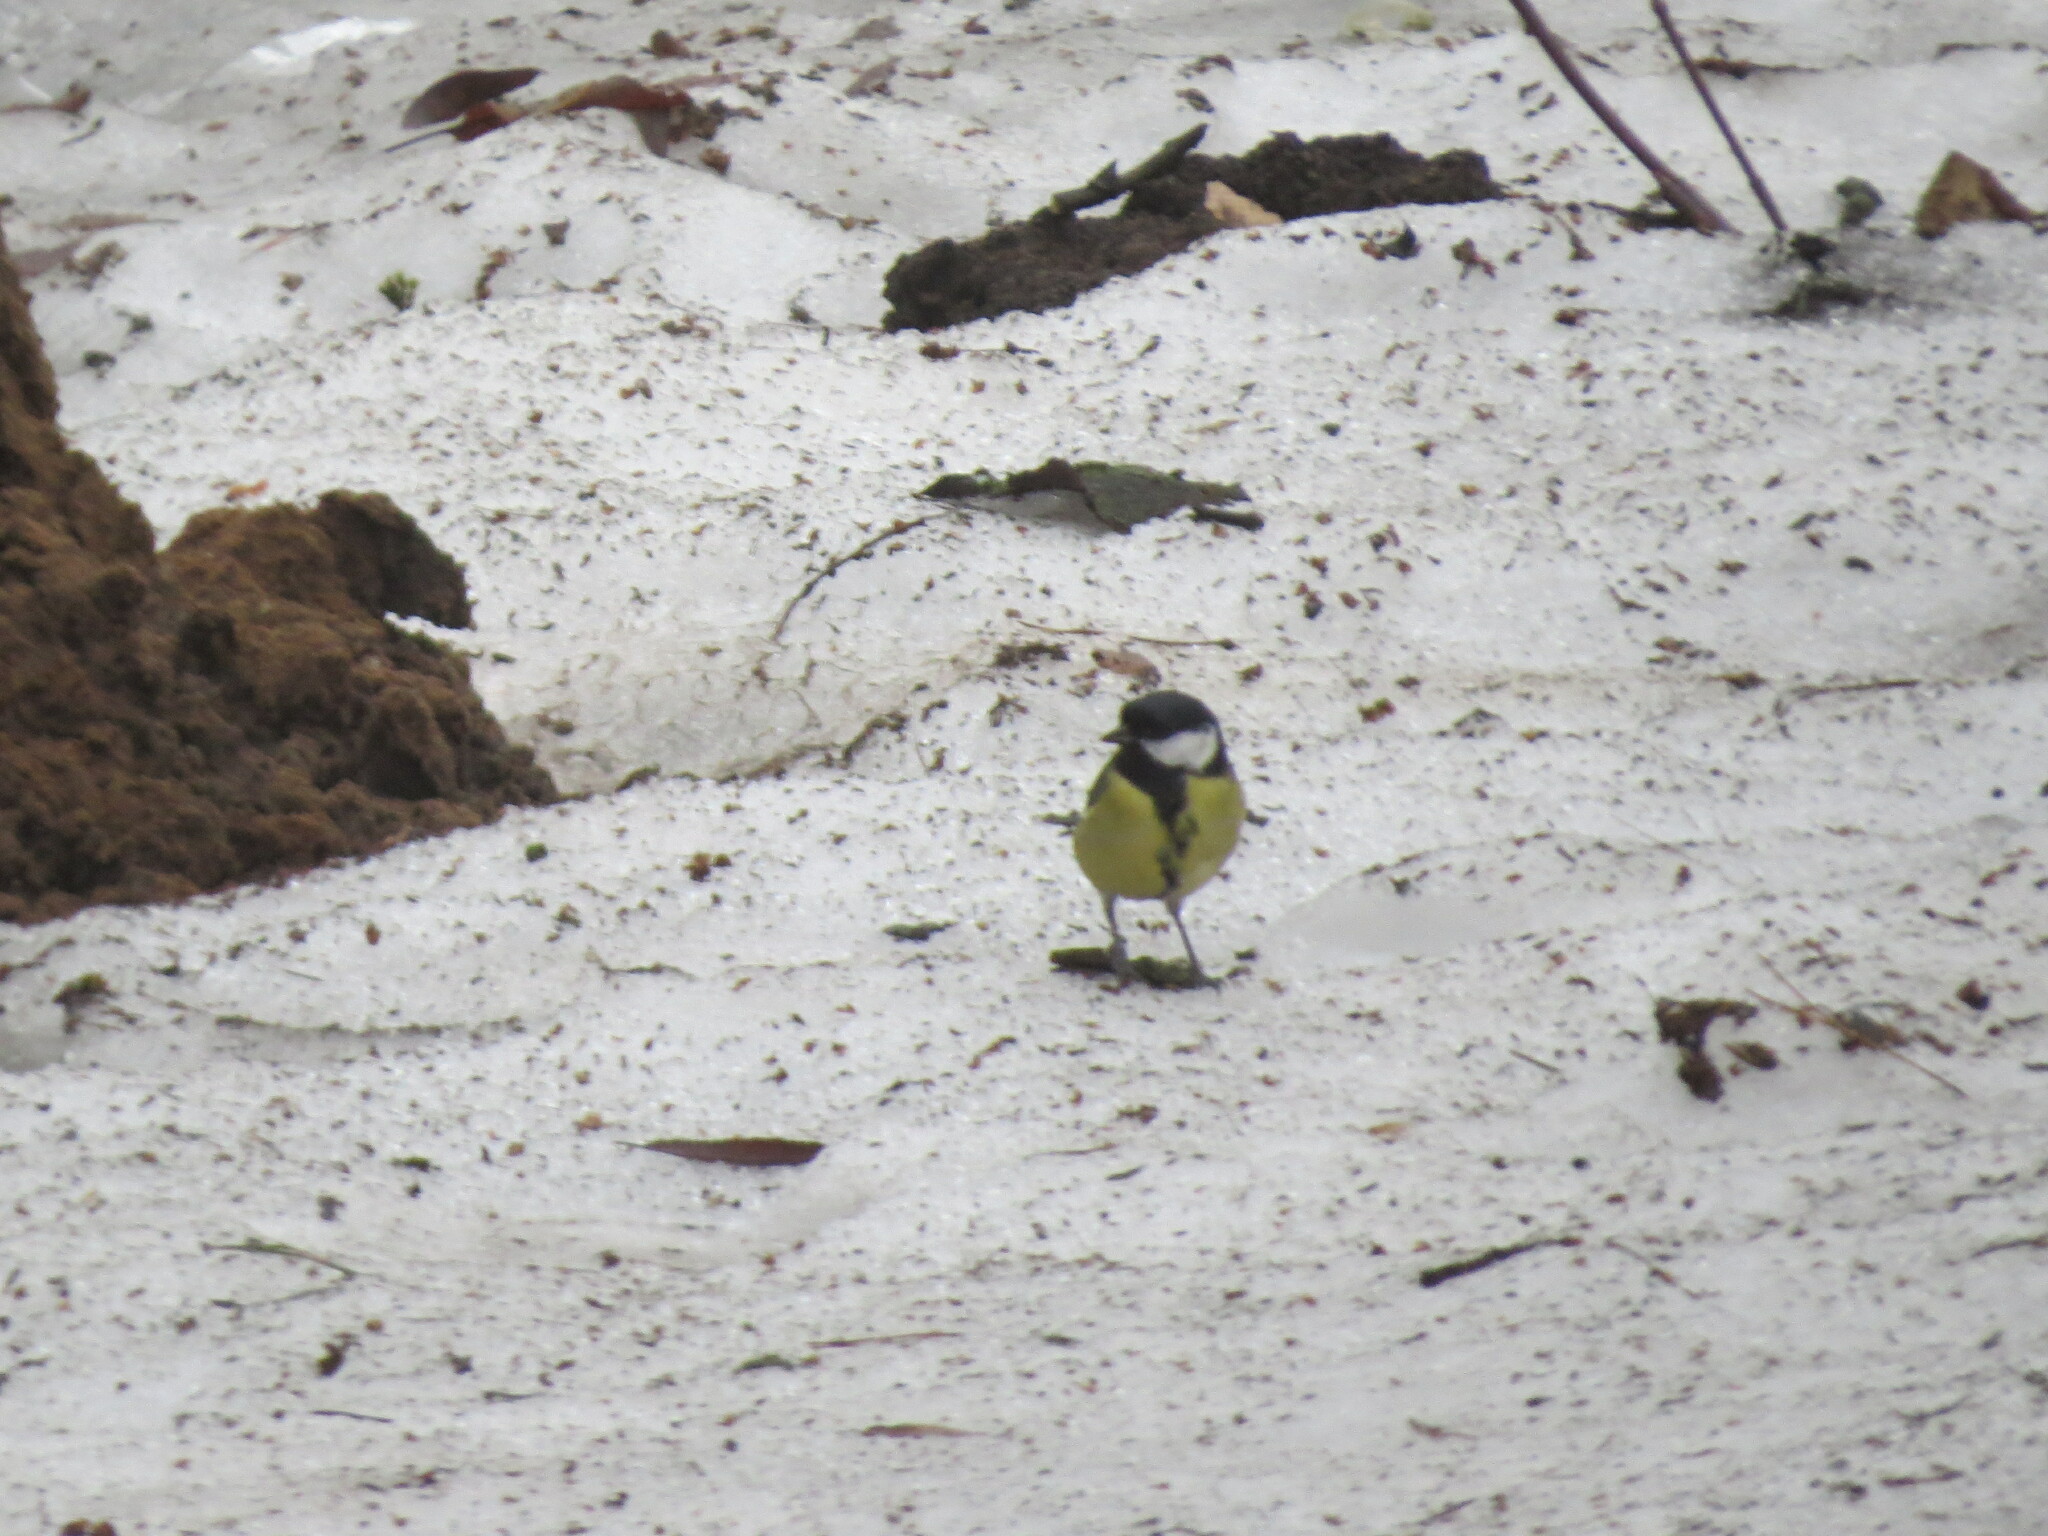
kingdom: Animalia
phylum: Chordata
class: Aves
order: Passeriformes
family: Paridae
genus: Parus
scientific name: Parus major
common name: Great tit
